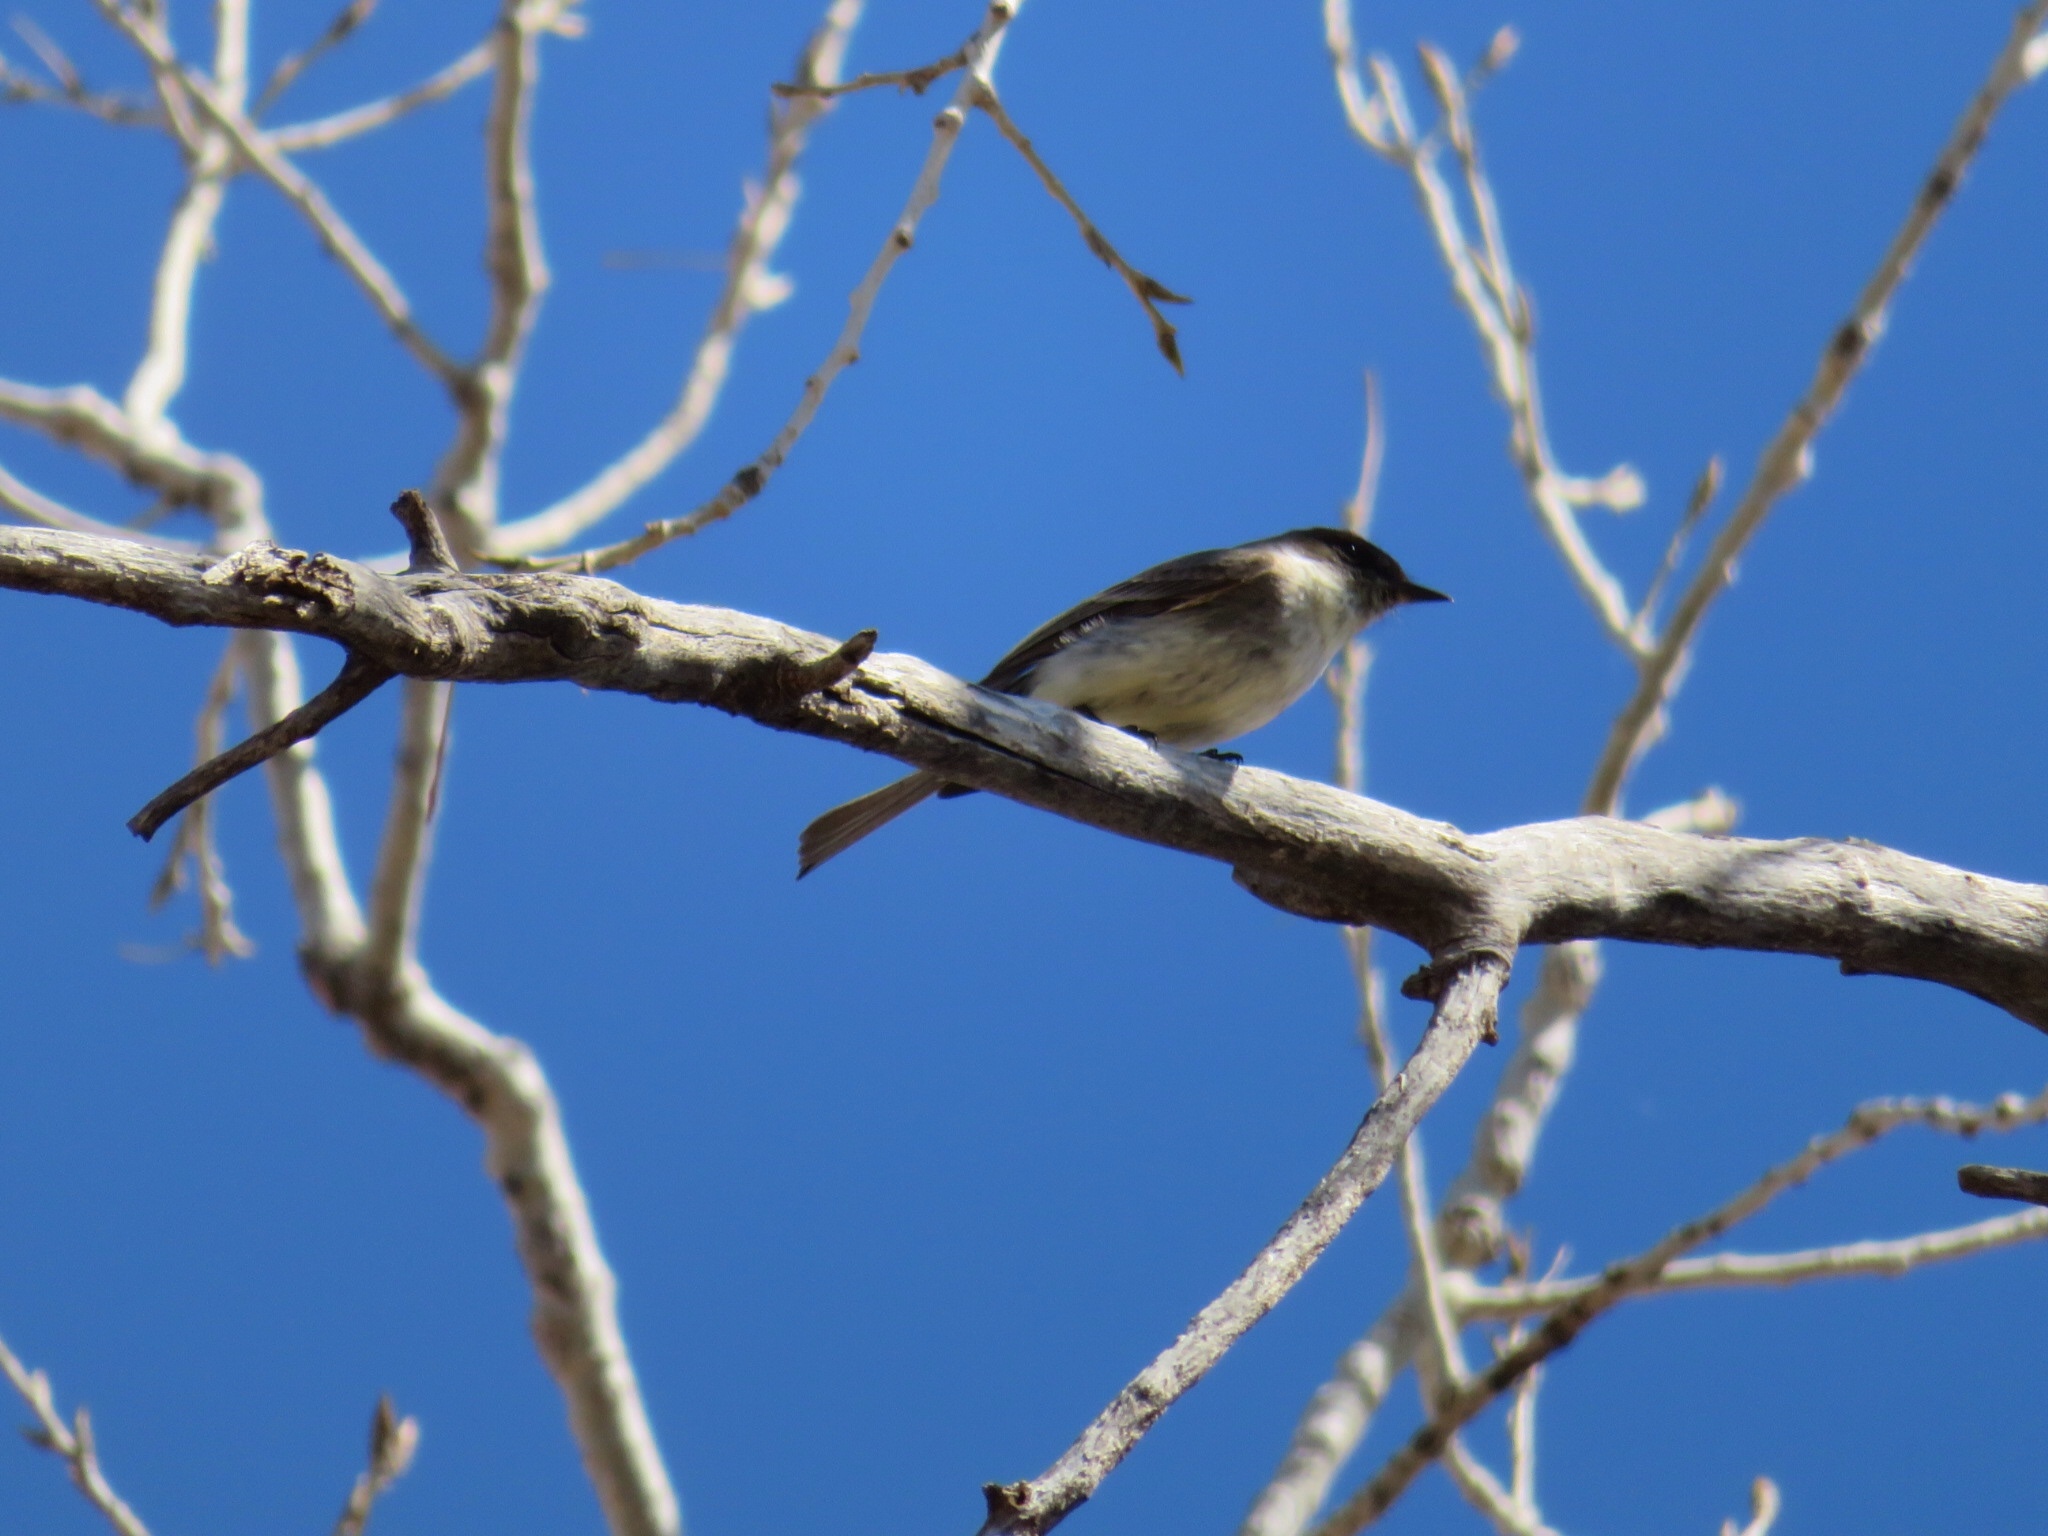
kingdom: Animalia
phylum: Chordata
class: Aves
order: Passeriformes
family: Tyrannidae
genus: Sayornis
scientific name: Sayornis phoebe
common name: Eastern phoebe
